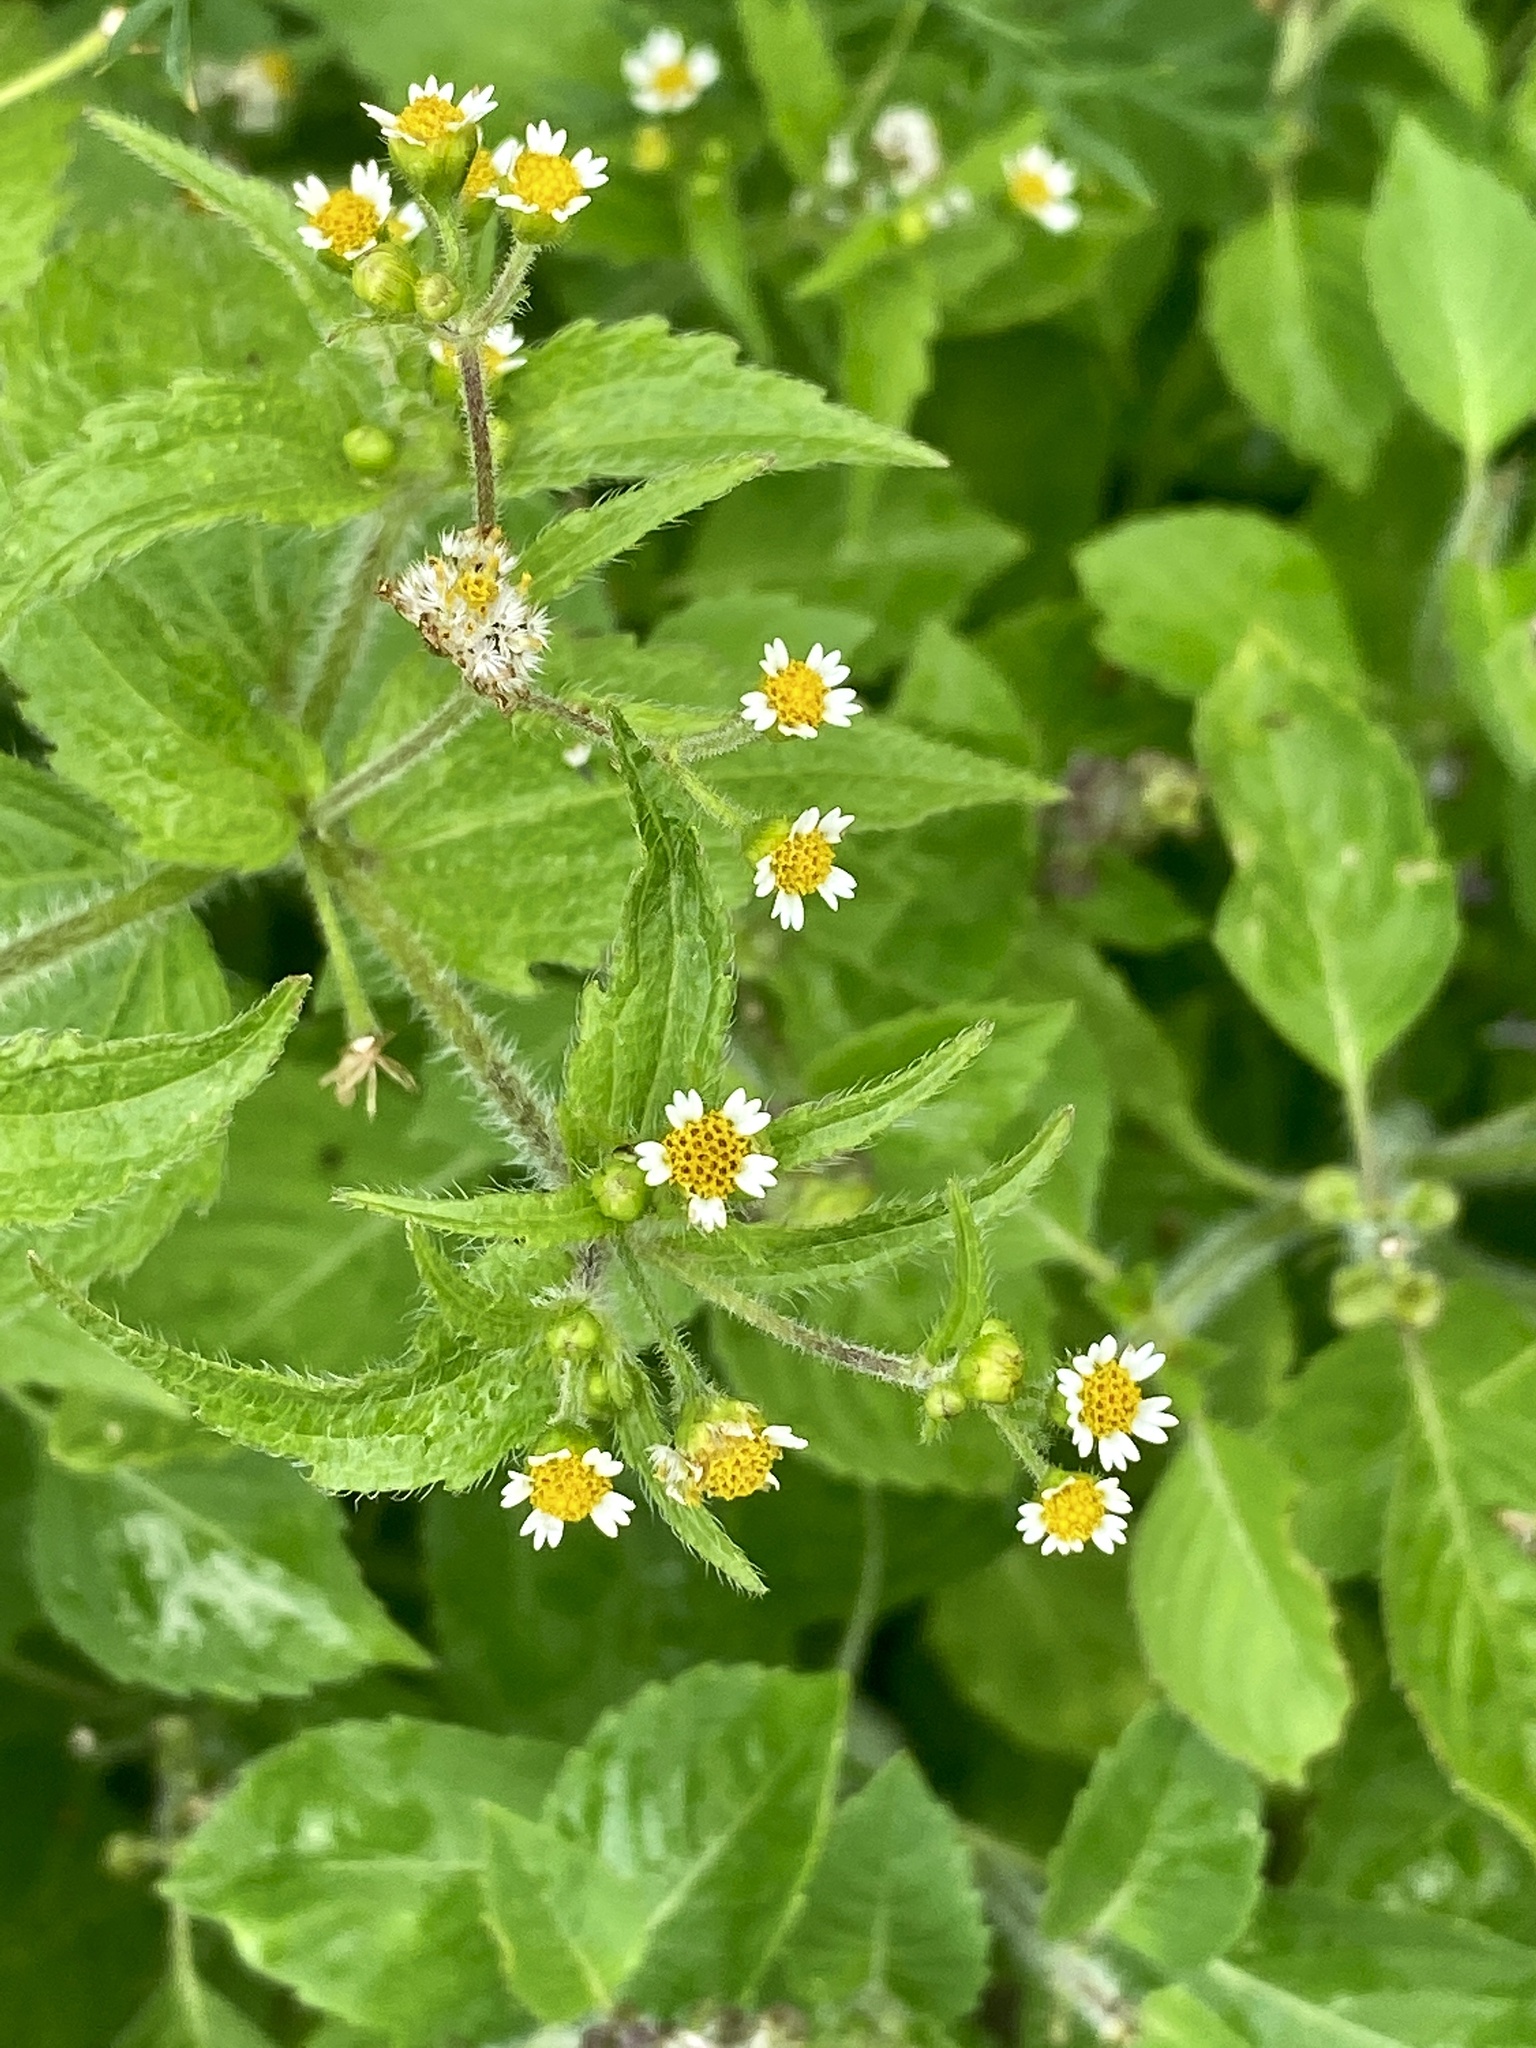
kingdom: Plantae
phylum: Tracheophyta
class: Magnoliopsida
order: Asterales
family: Asteraceae
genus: Galinsoga
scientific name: Galinsoga quadriradiata
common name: Shaggy soldier
